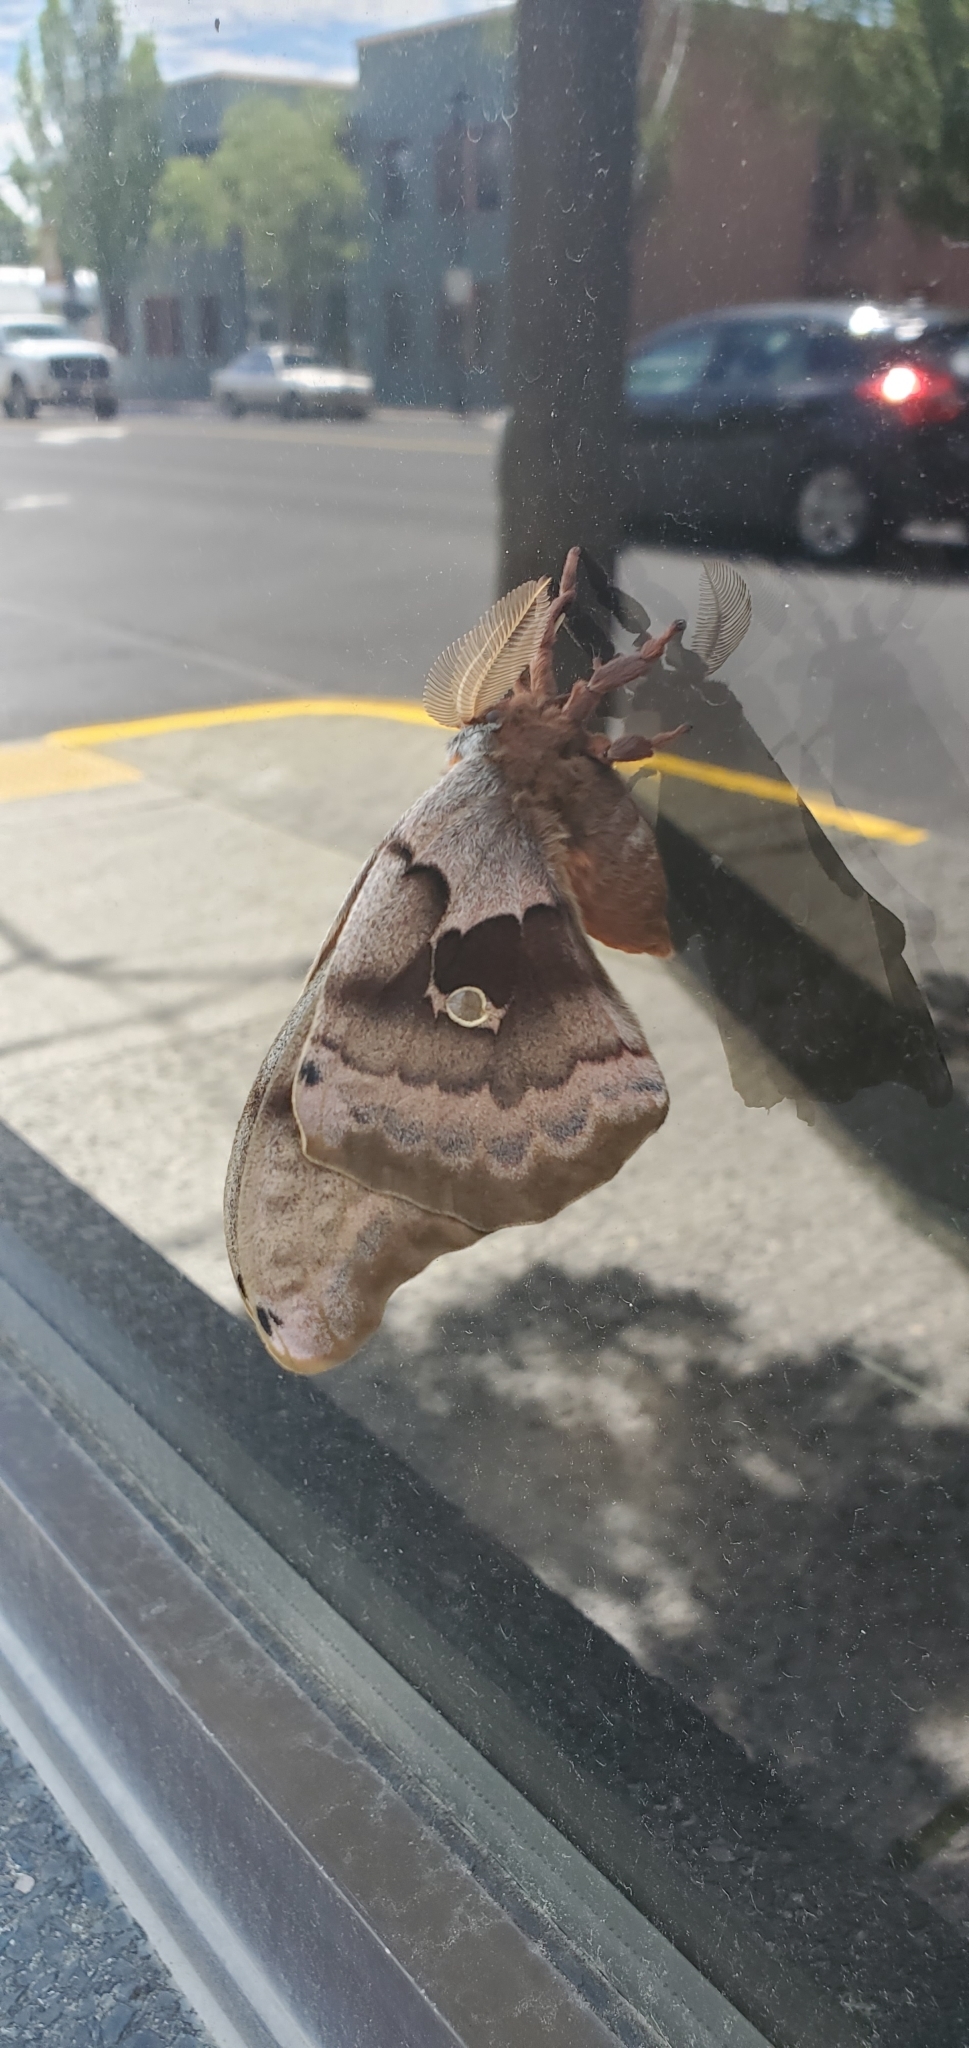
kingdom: Animalia
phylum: Arthropoda
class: Insecta
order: Lepidoptera
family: Saturniidae
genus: Antheraea
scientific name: Antheraea polyphemus
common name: Polyphemus moth
